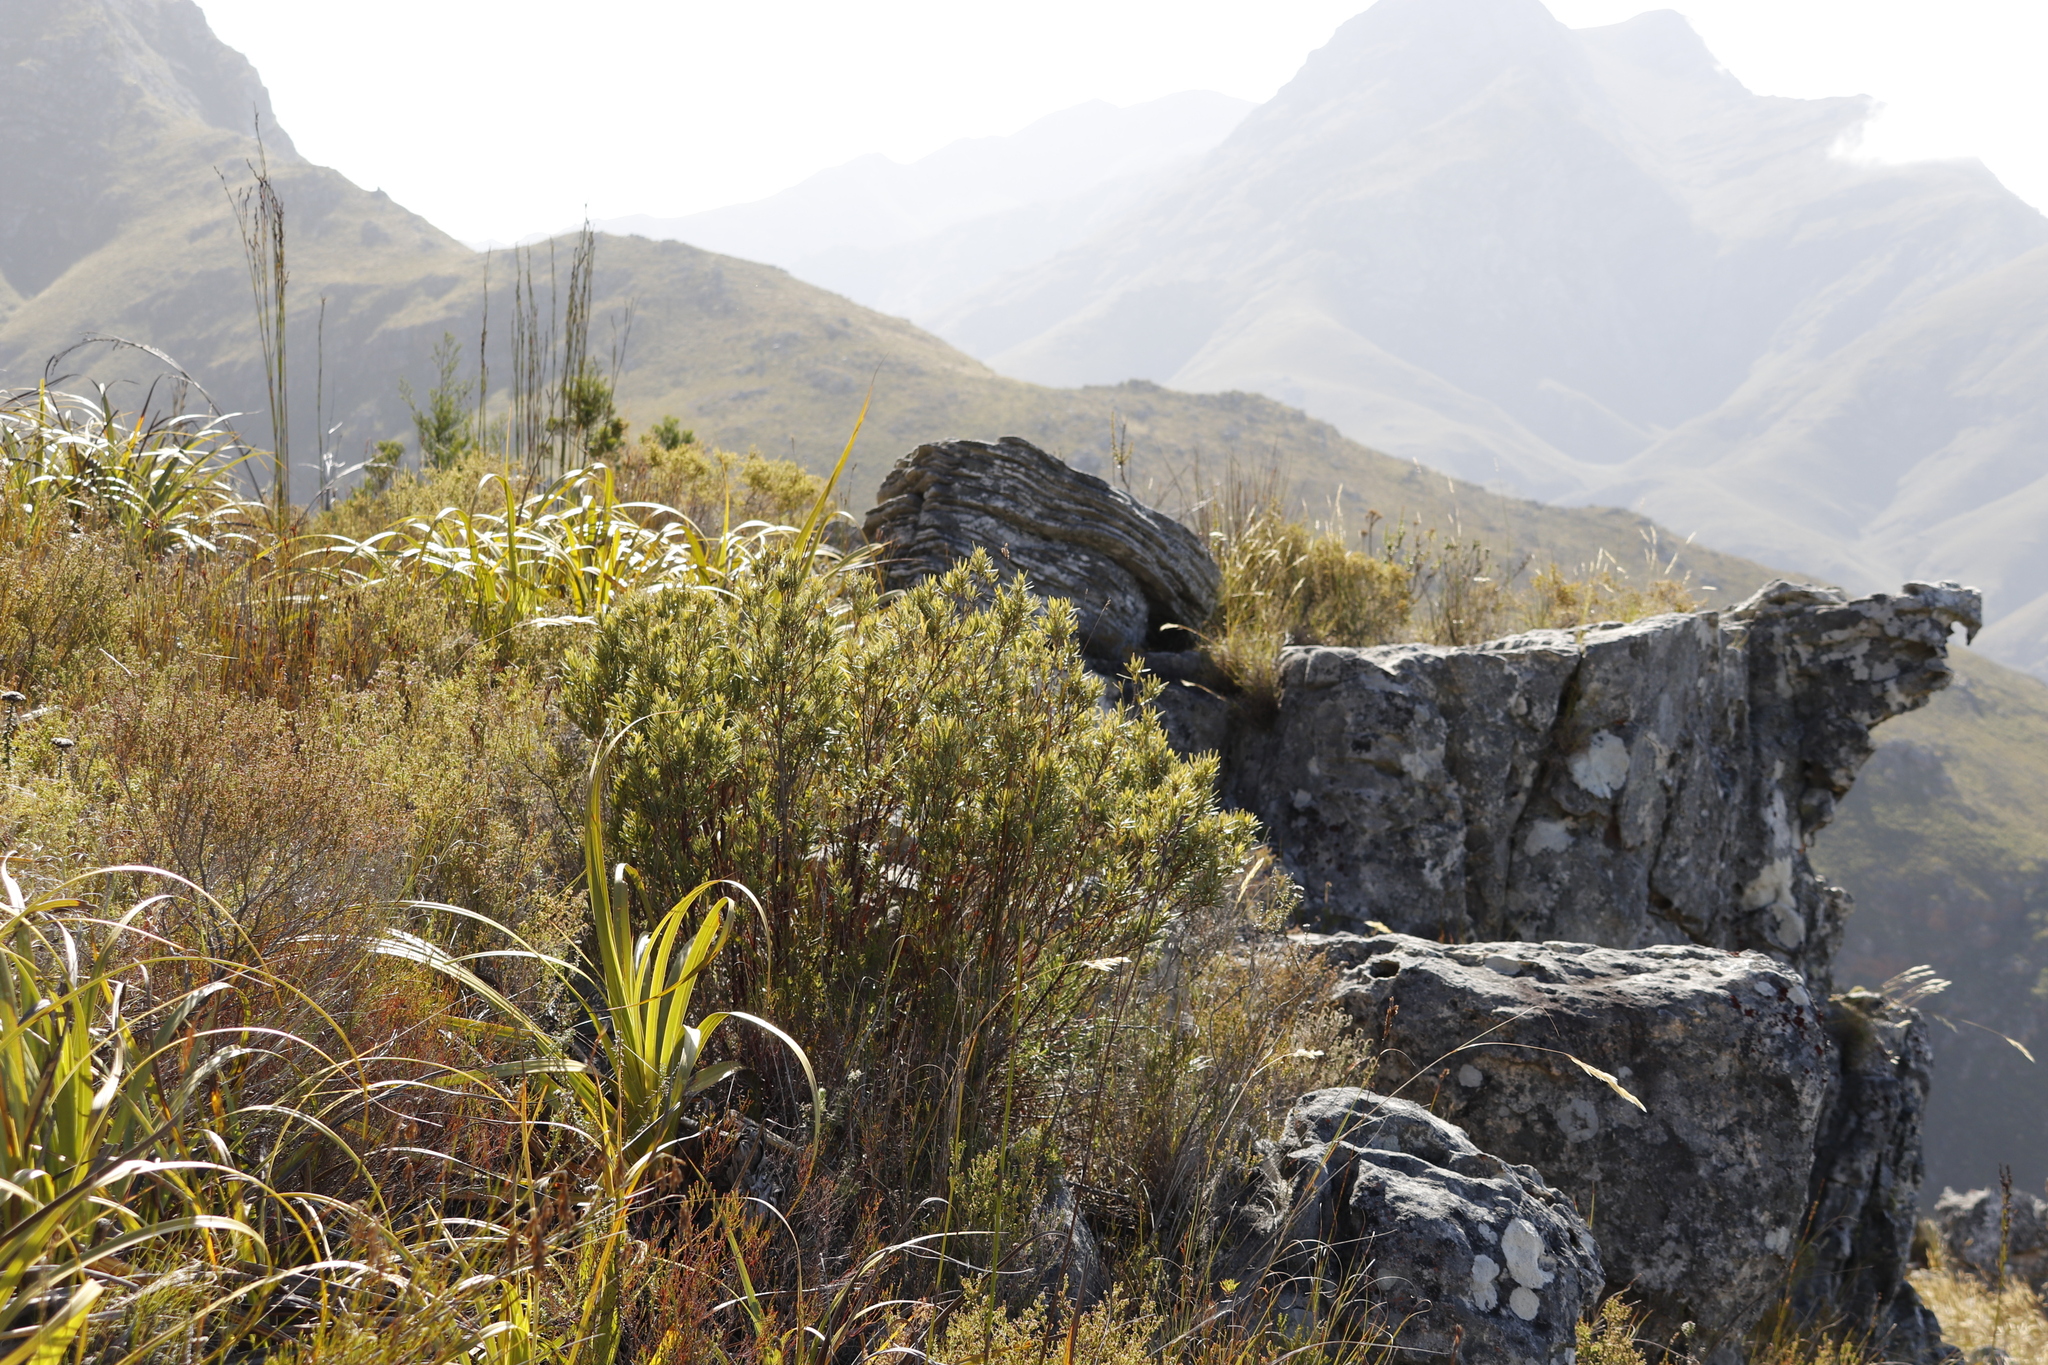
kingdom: Plantae
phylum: Tracheophyta
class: Magnoliopsida
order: Cornales
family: Grubbiaceae
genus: Grubbia
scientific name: Grubbia tomentosa
